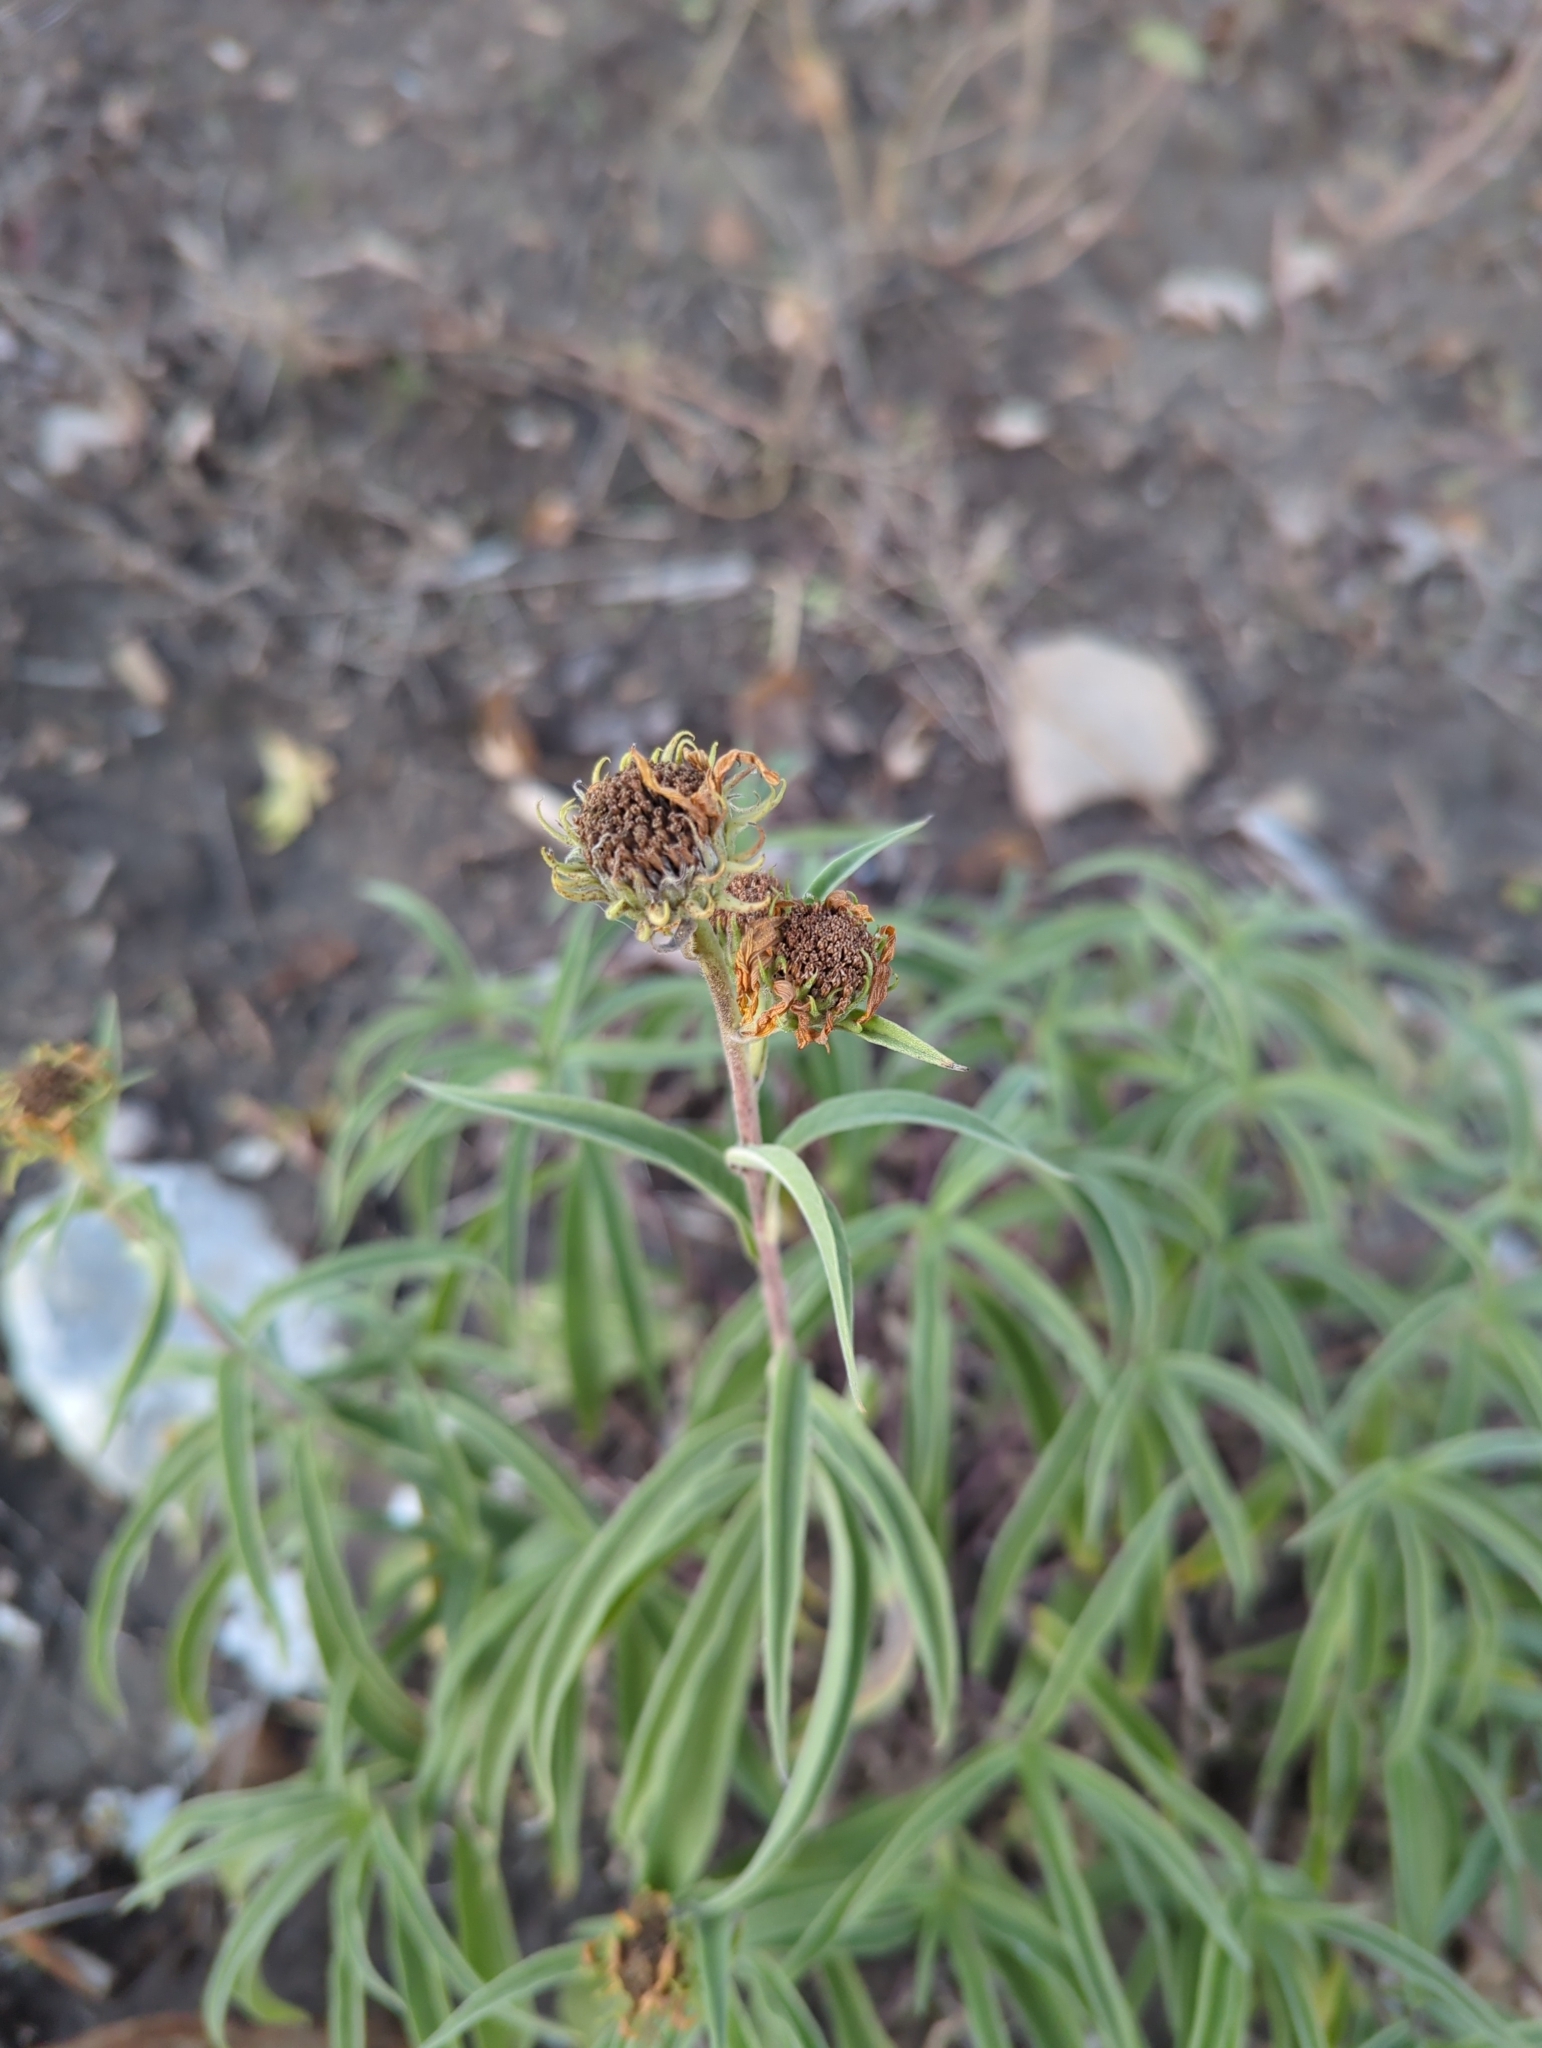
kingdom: Plantae
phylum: Tracheophyta
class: Magnoliopsida
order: Asterales
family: Asteraceae
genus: Helianthus
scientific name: Helianthus maximiliani
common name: Maximilian's sunflower
